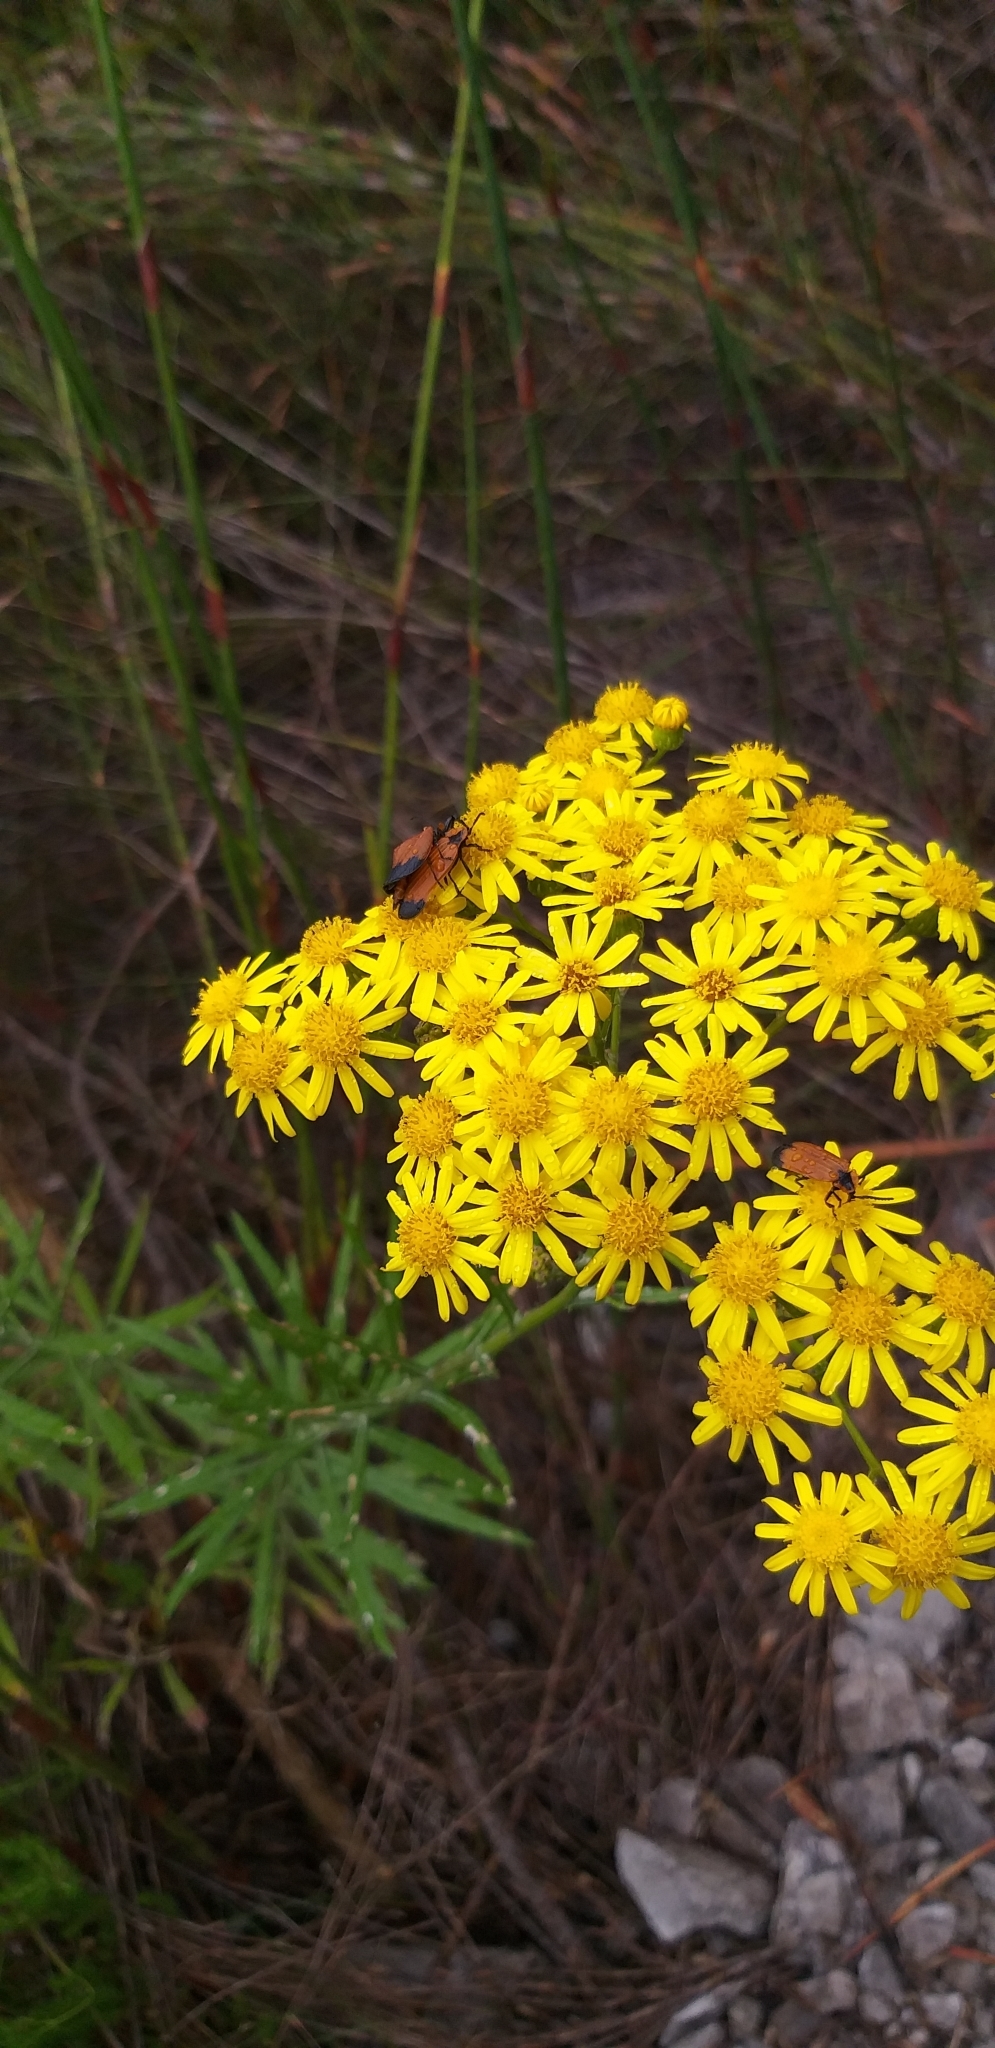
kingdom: Animalia
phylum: Arthropoda
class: Insecta
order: Coleoptera
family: Lycidae
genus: Lycus
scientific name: Lycus
